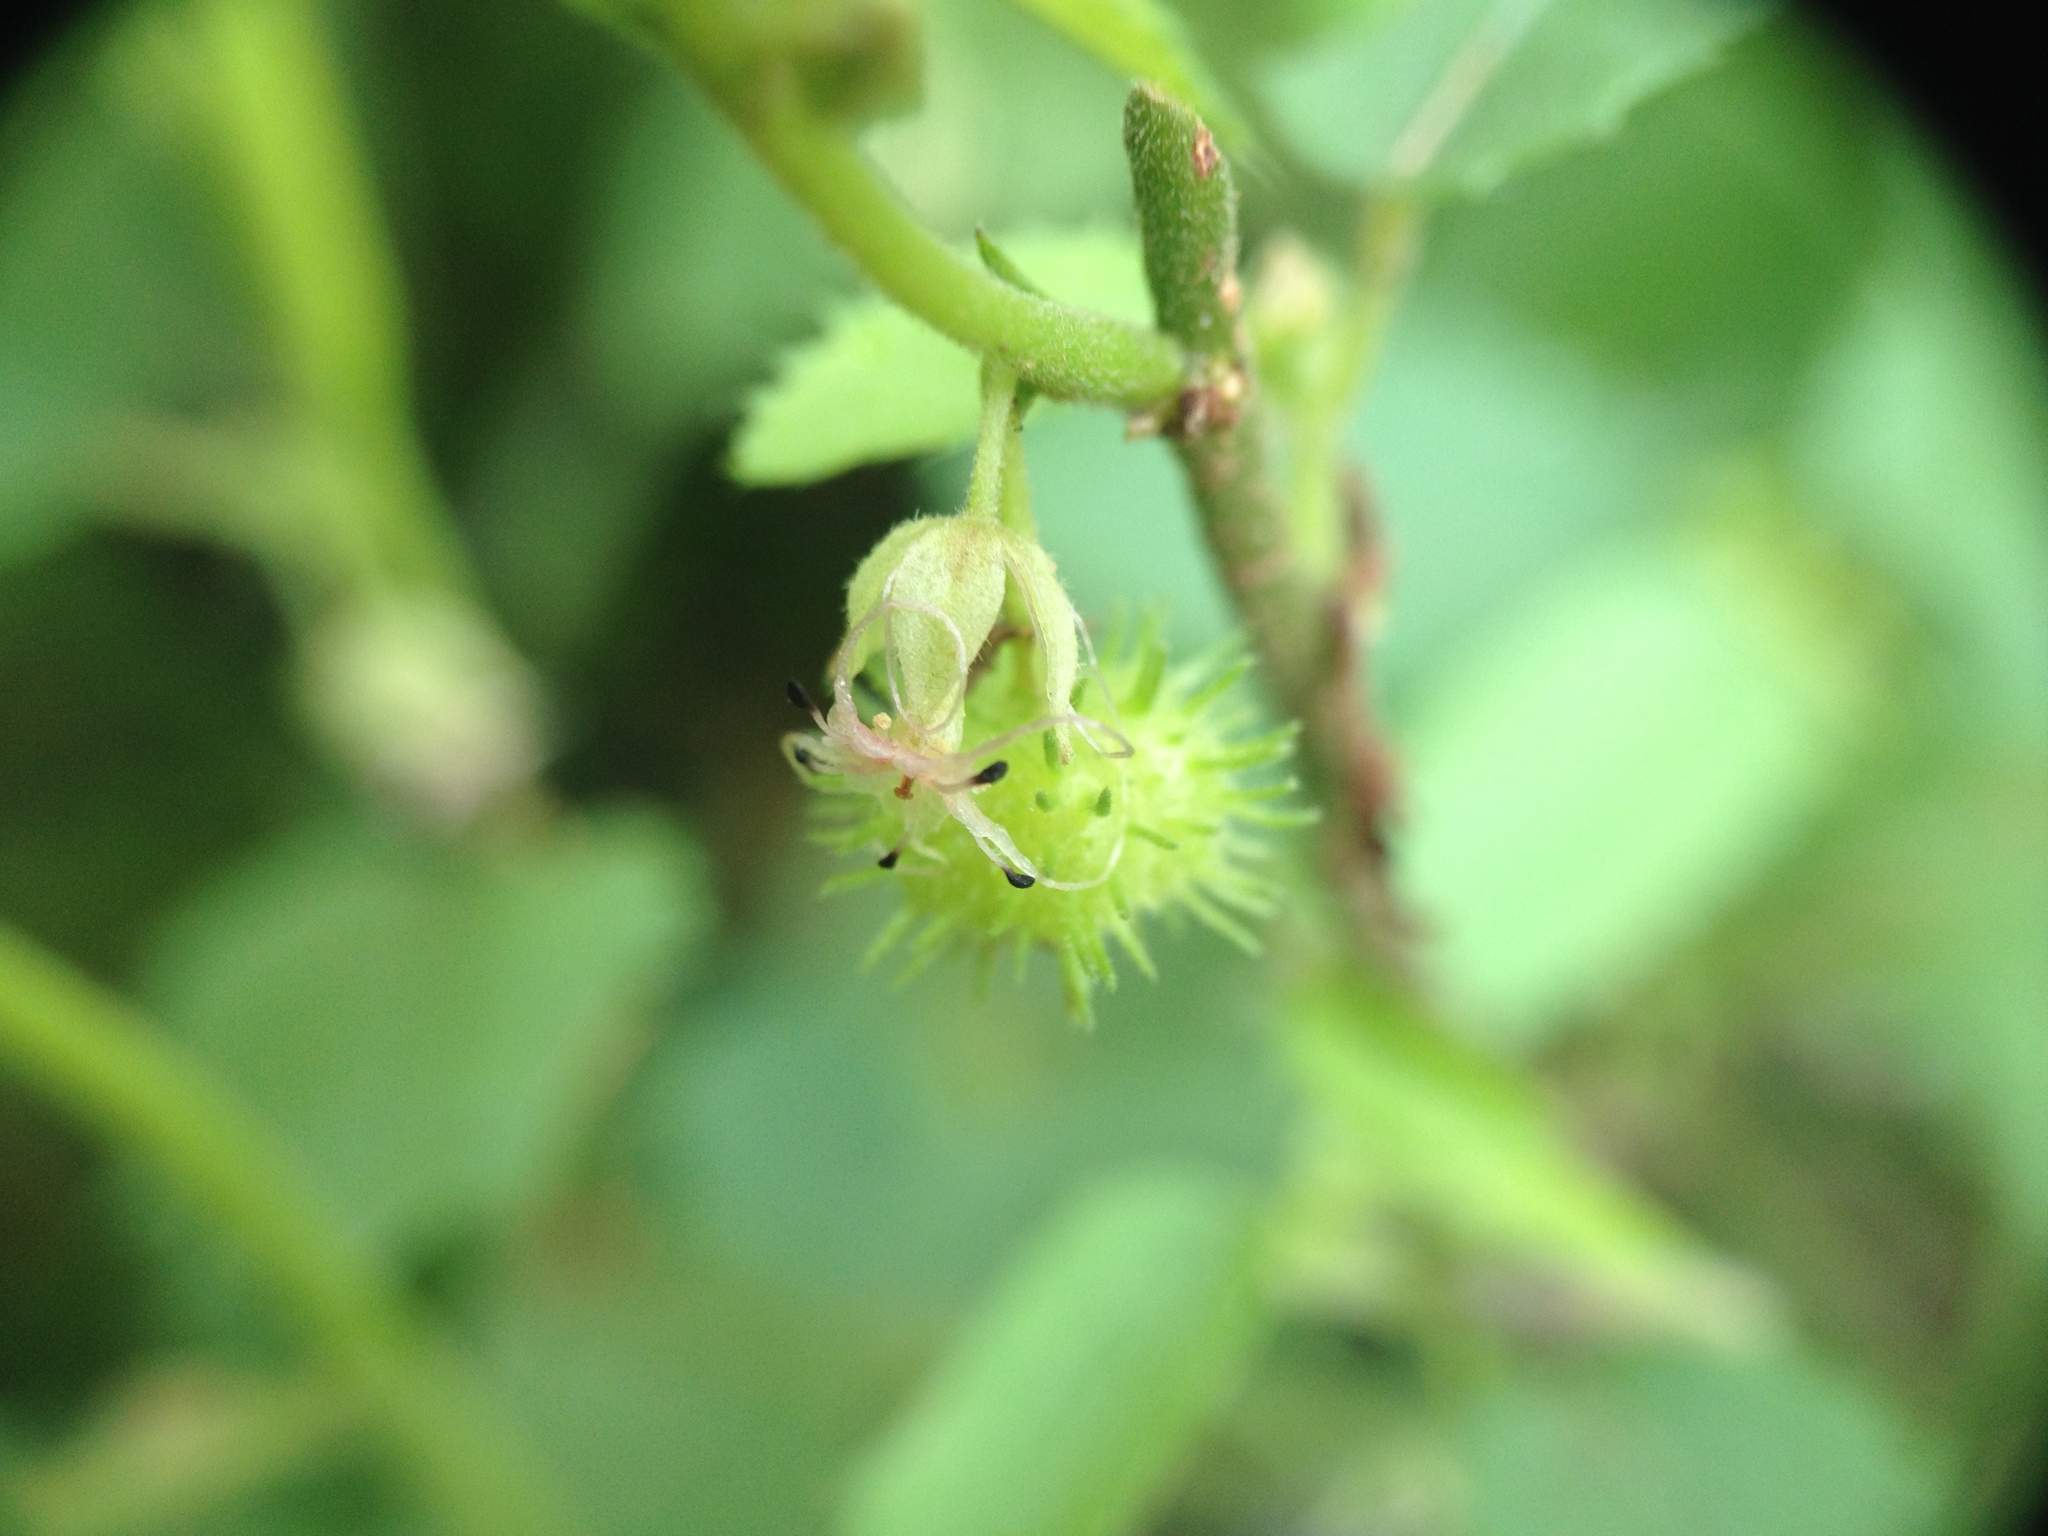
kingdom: Plantae
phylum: Tracheophyta
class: Magnoliopsida
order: Malvales
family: Malvaceae
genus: Ayenia
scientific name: Ayenia odonellii
